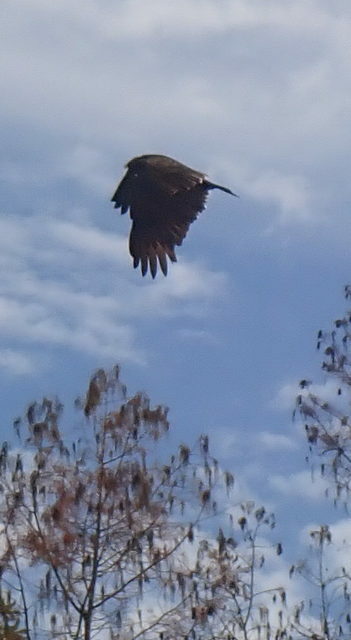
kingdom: Animalia
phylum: Chordata
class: Aves
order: Accipitriformes
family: Cathartidae
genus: Cathartes
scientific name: Cathartes aura
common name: Turkey vulture
